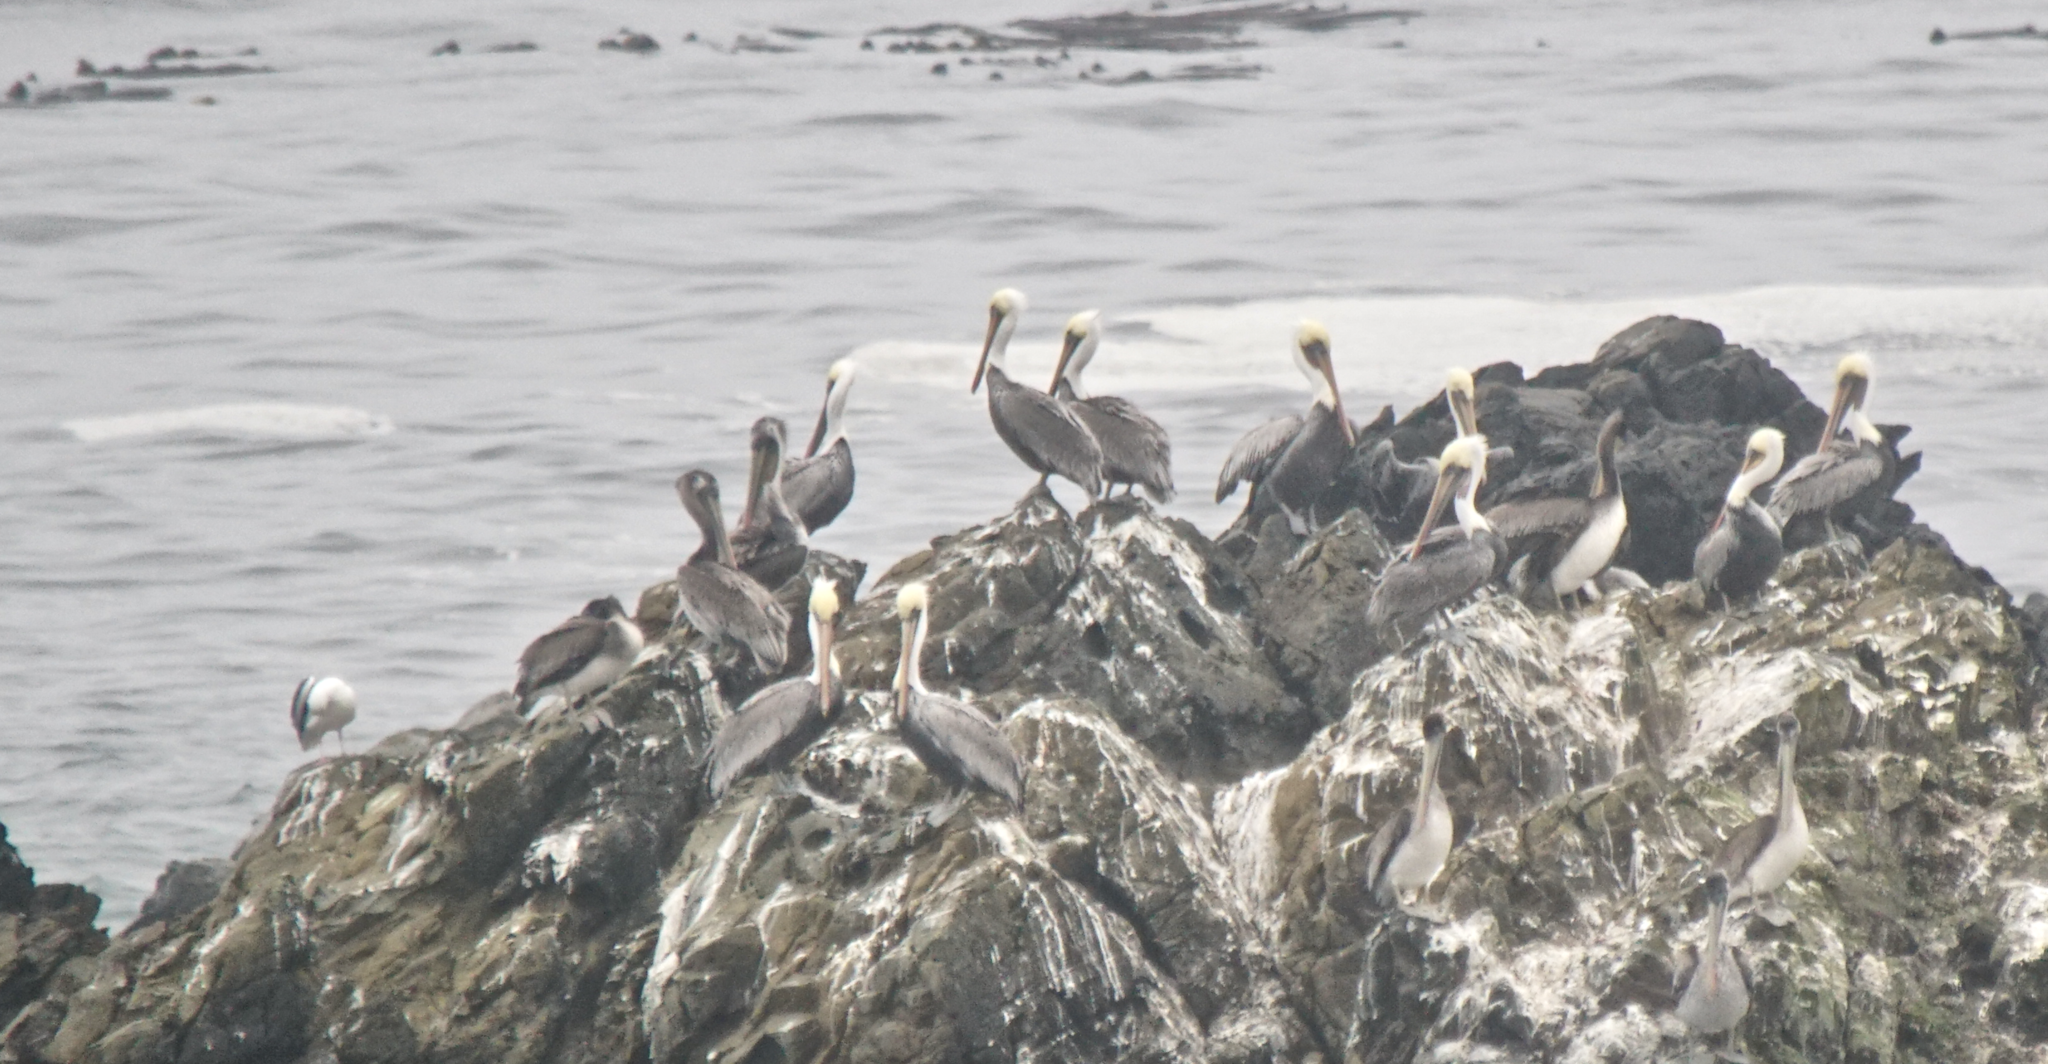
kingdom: Animalia
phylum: Chordata
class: Aves
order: Pelecaniformes
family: Pelecanidae
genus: Pelecanus
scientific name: Pelecanus occidentalis
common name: Brown pelican
